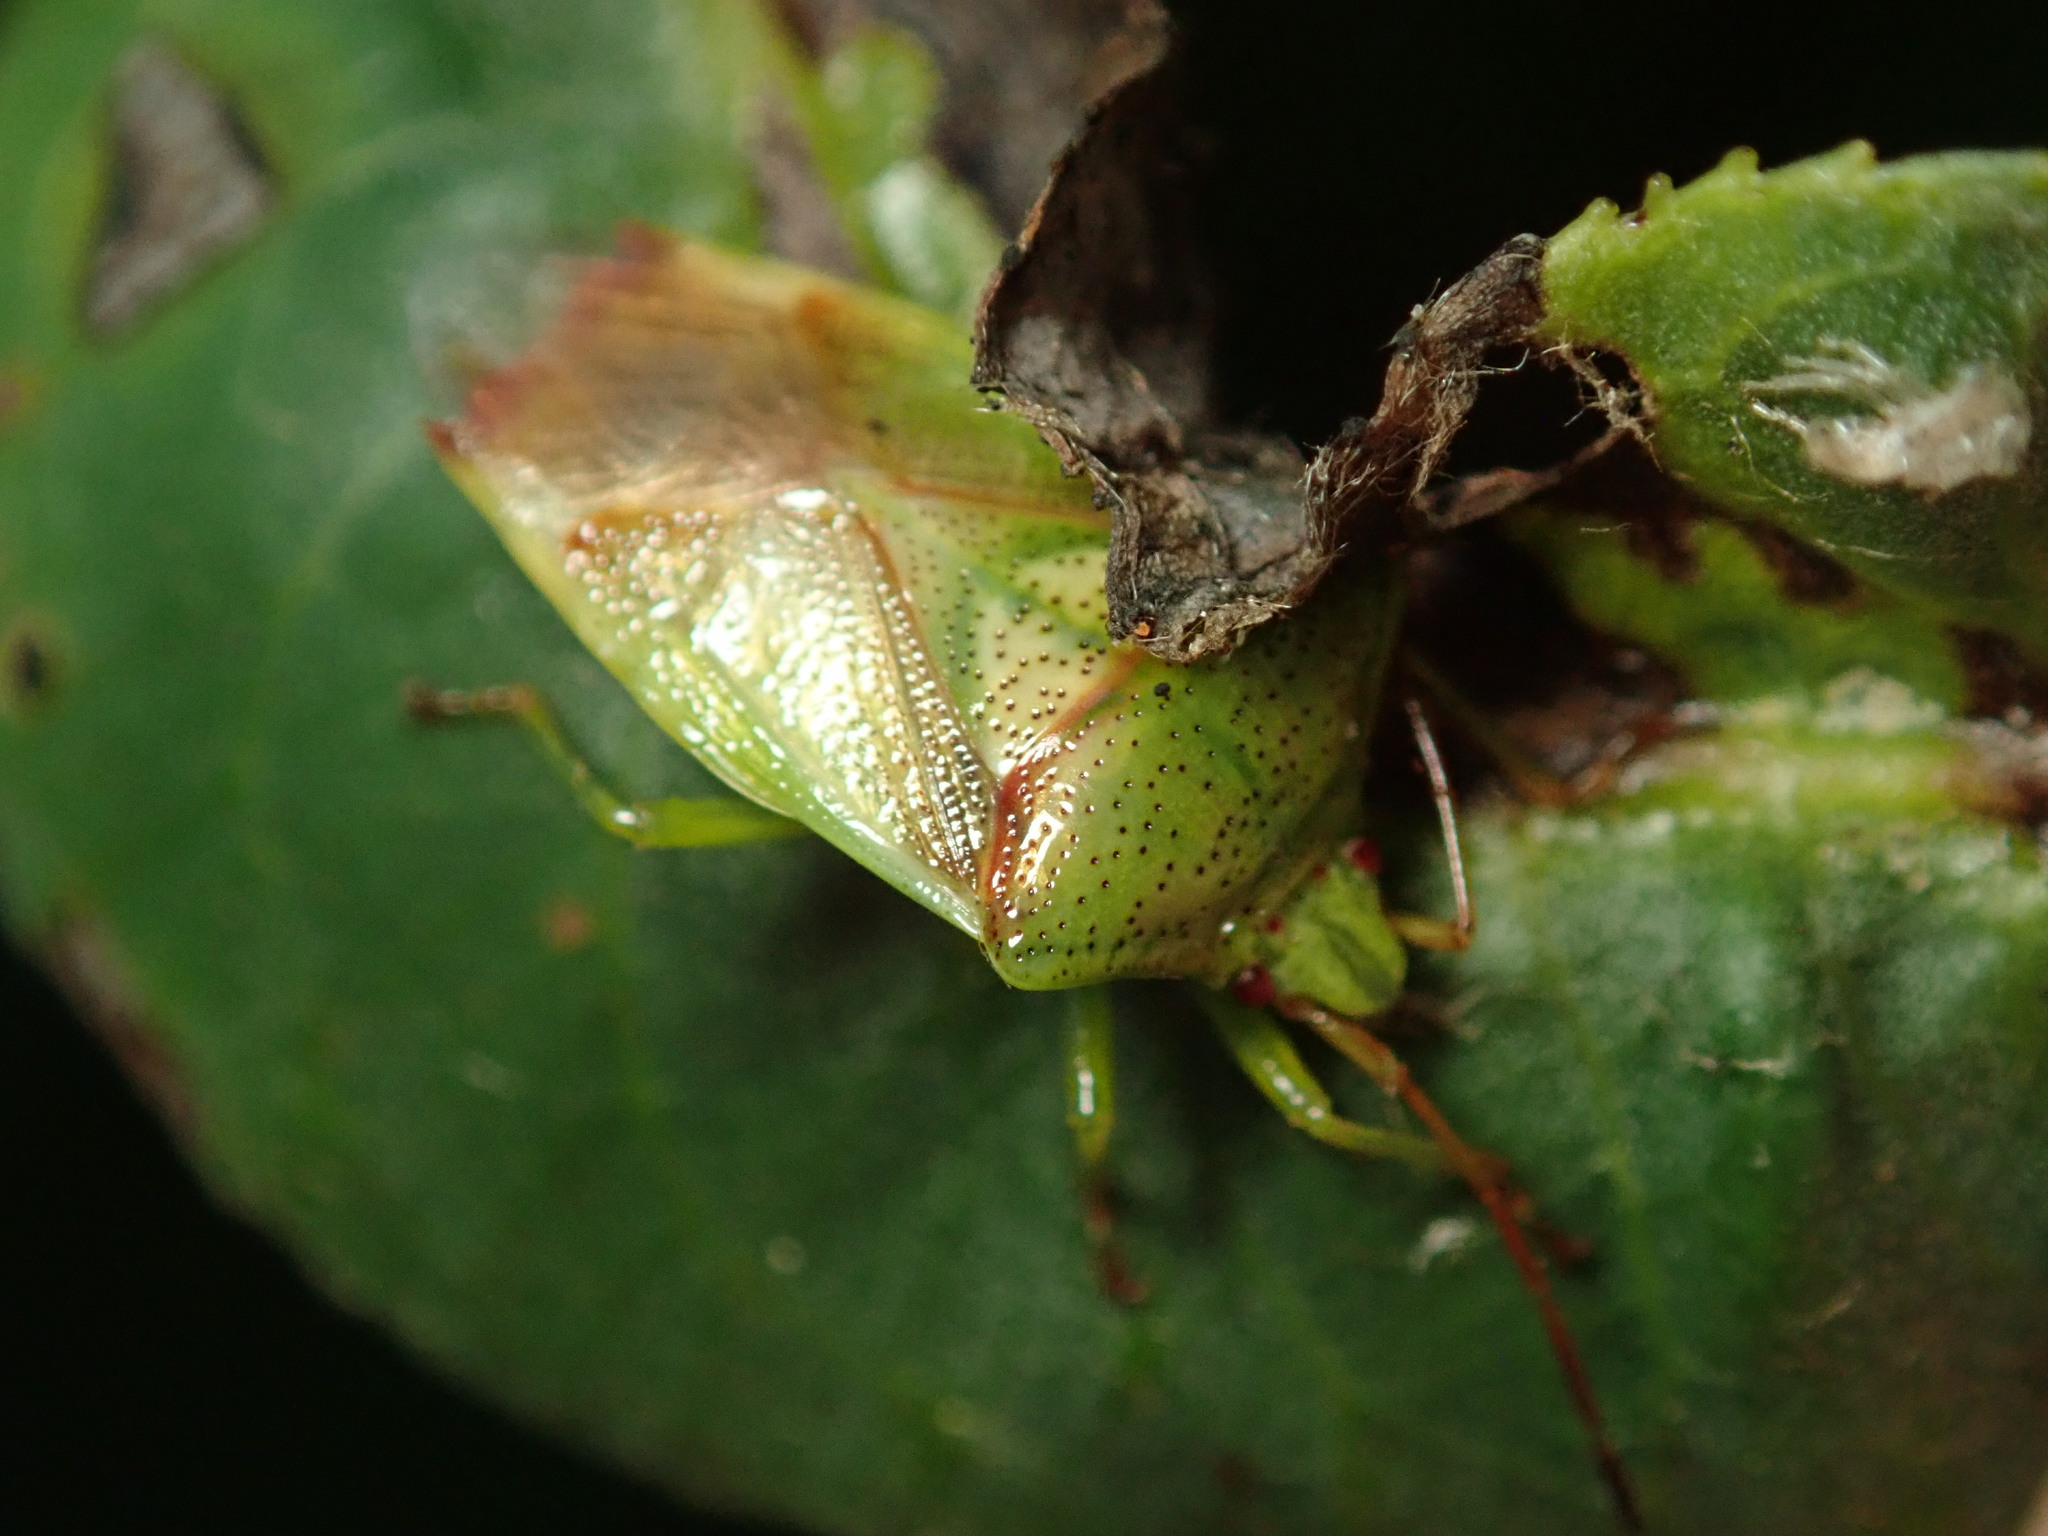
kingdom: Animalia
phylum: Arthropoda
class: Insecta
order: Hemiptera
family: Acanthosomatidae
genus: Elasmostethus
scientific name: Elasmostethus cruciatus
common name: Red-cross shield bug
